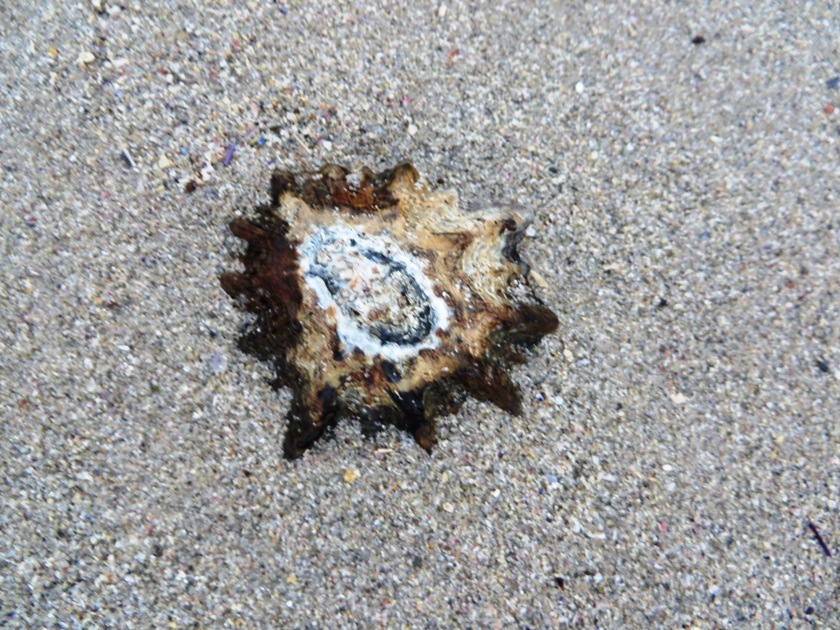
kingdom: Animalia
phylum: Mollusca
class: Gastropoda
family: Patellidae
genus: Cymbula
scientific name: Cymbula oculus
